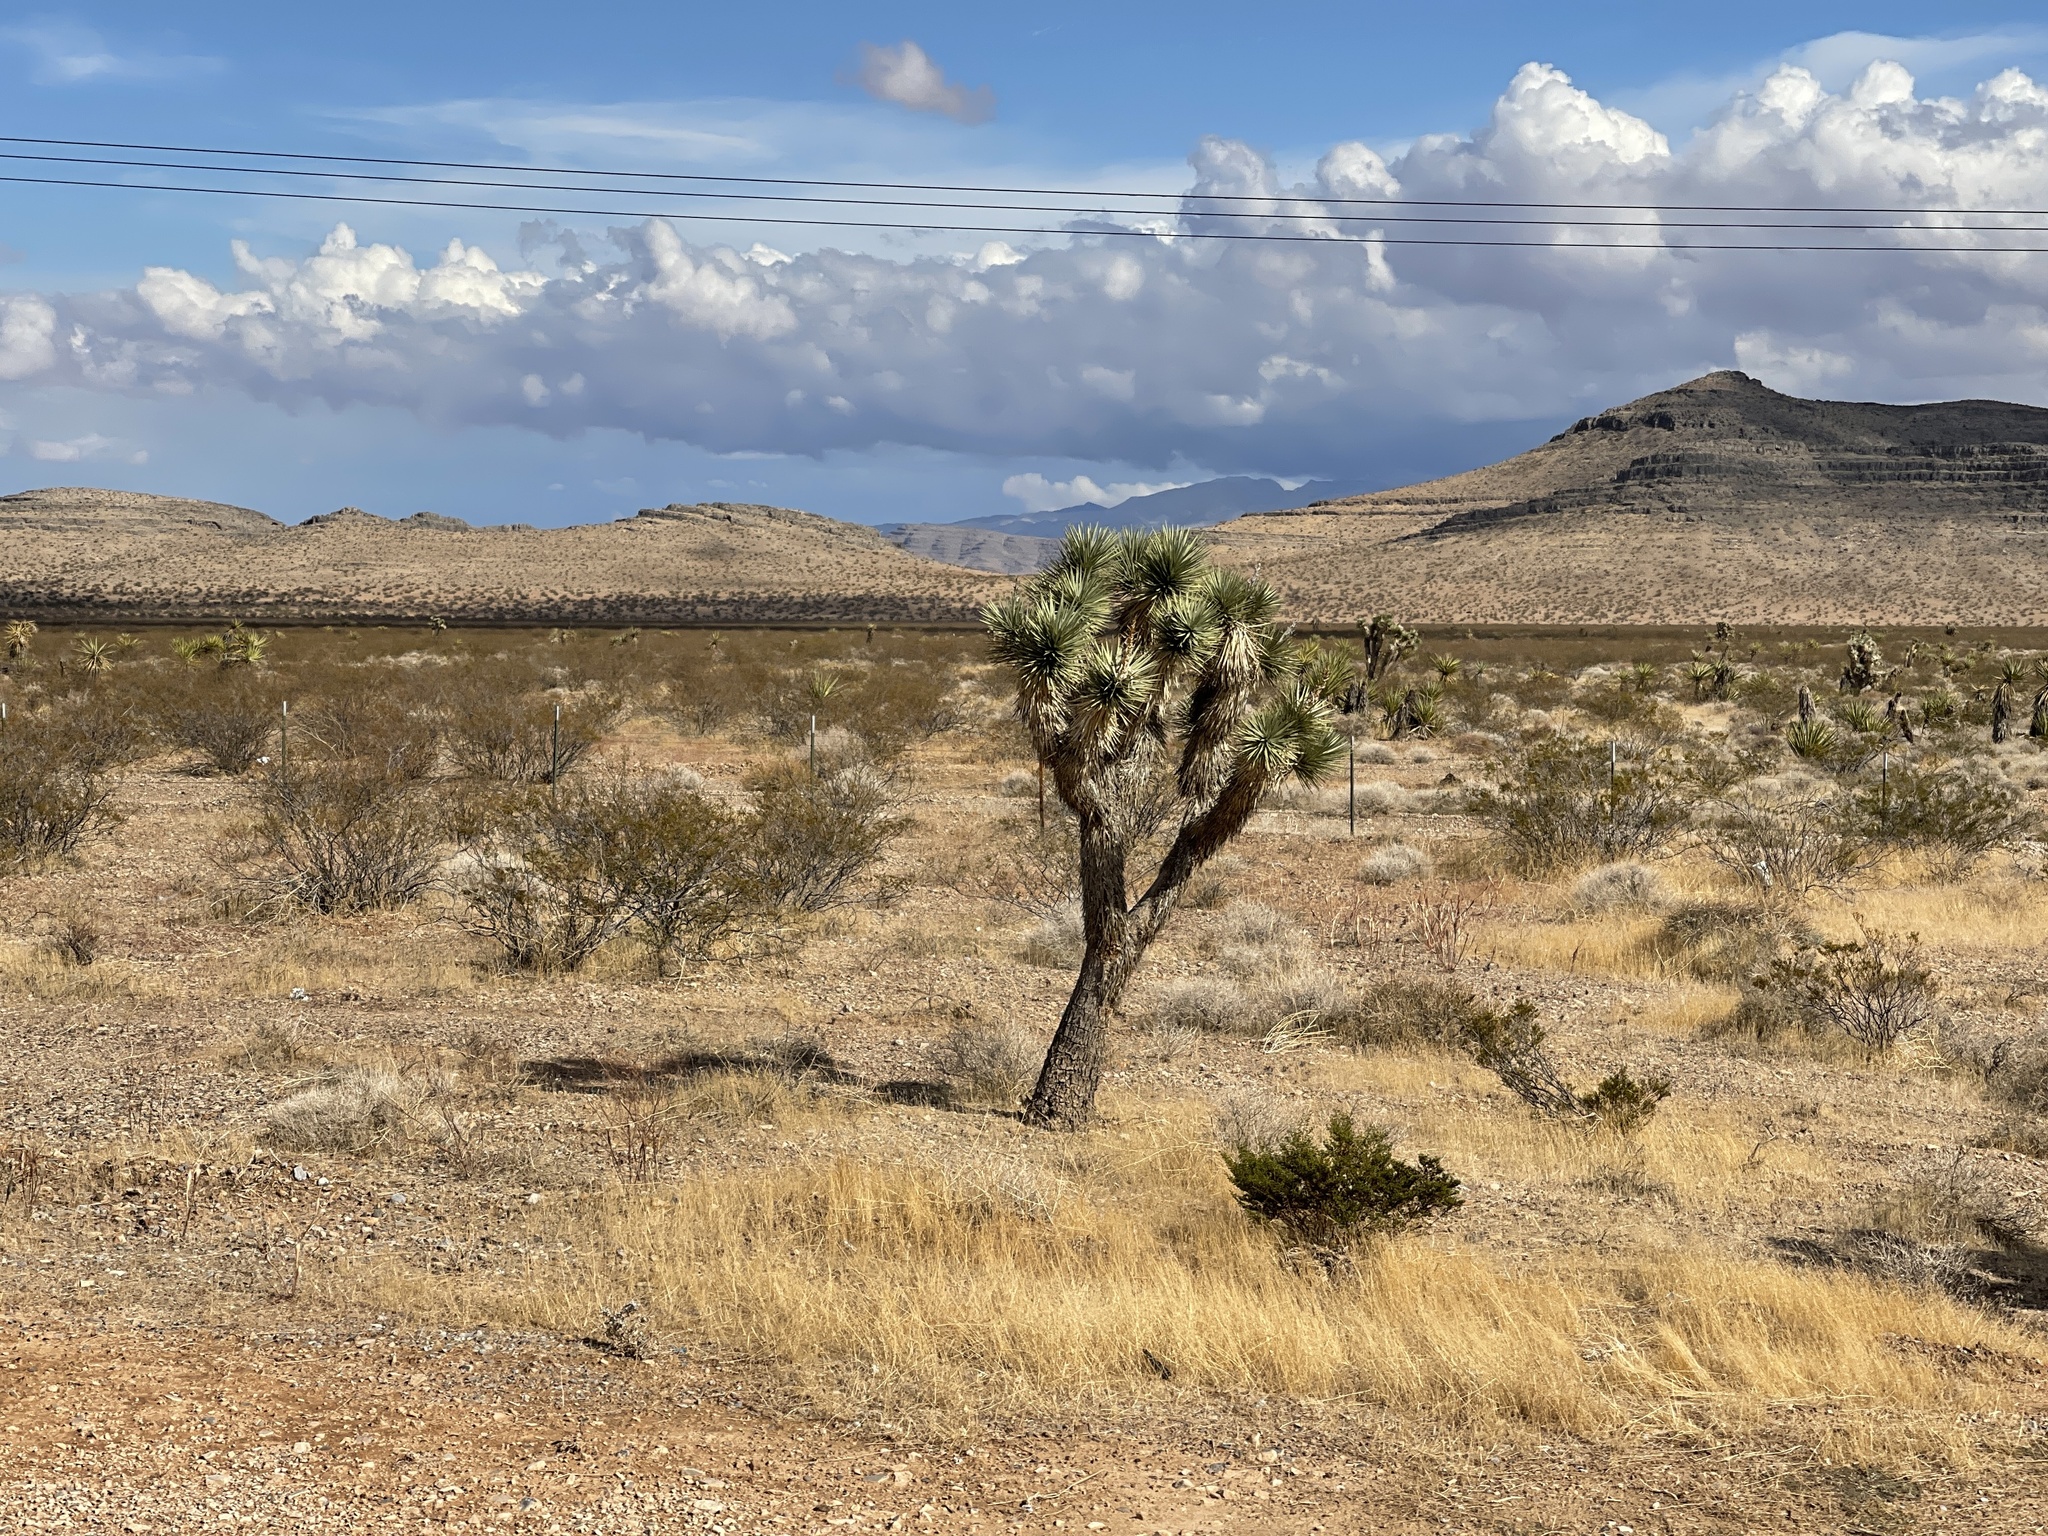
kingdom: Plantae
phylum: Tracheophyta
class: Liliopsida
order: Asparagales
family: Asparagaceae
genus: Yucca
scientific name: Yucca brevifolia
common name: Joshua tree
